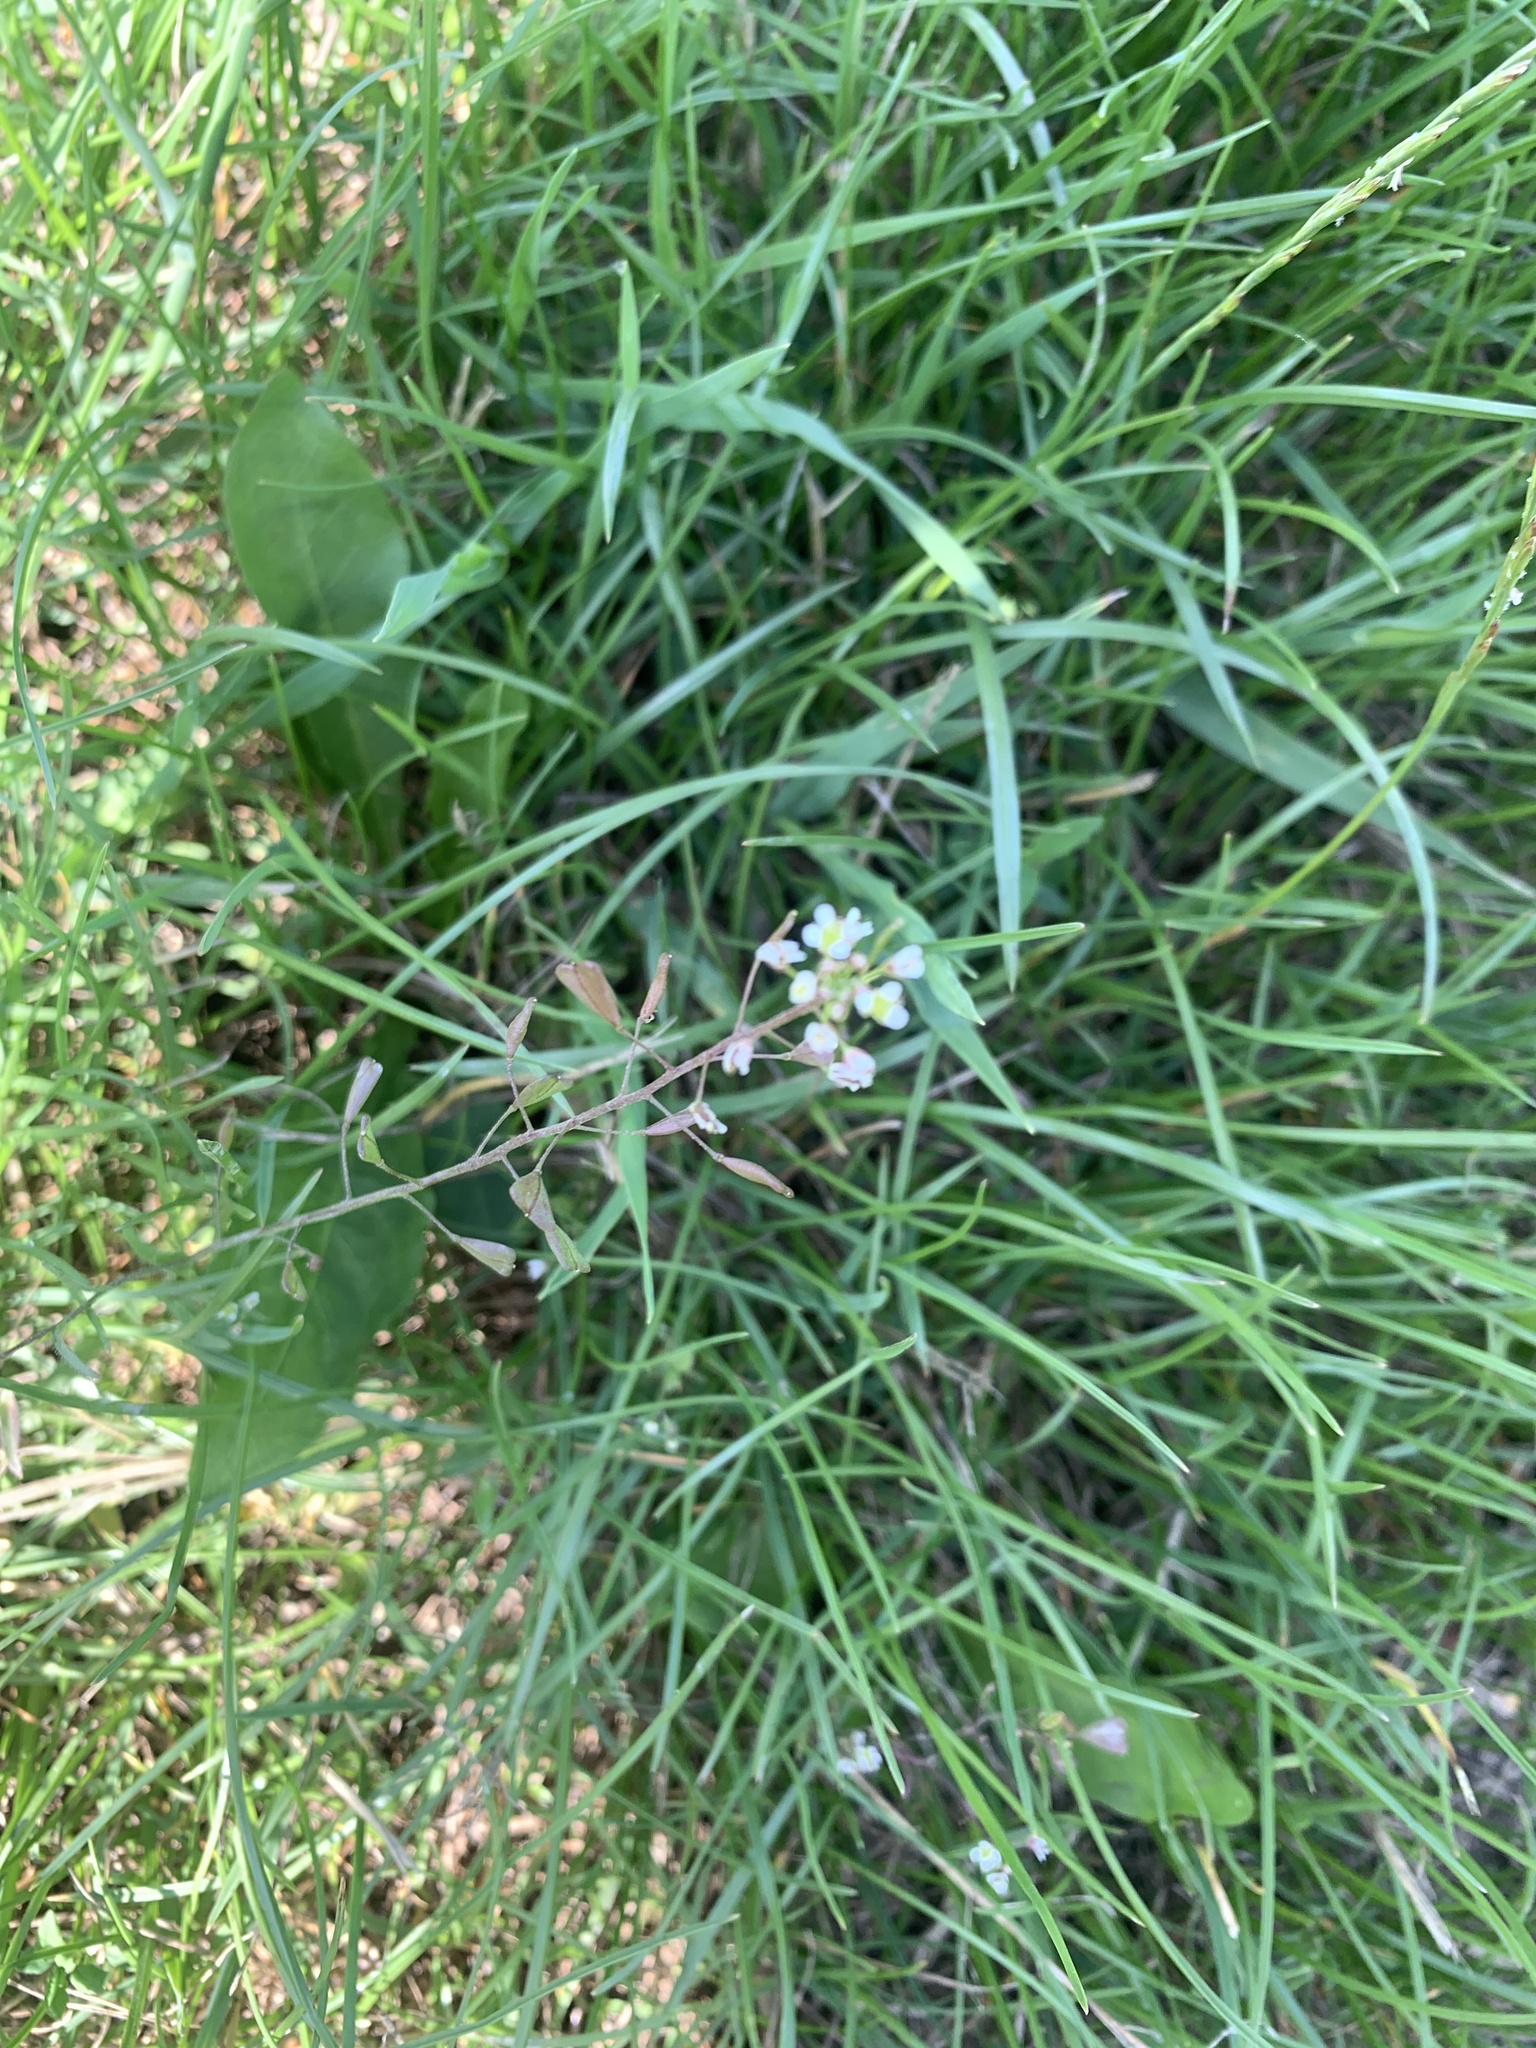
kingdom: Plantae
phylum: Tracheophyta
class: Magnoliopsida
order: Brassicales
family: Brassicaceae
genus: Capsella
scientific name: Capsella bursa-pastoris
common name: Shepherd's purse
